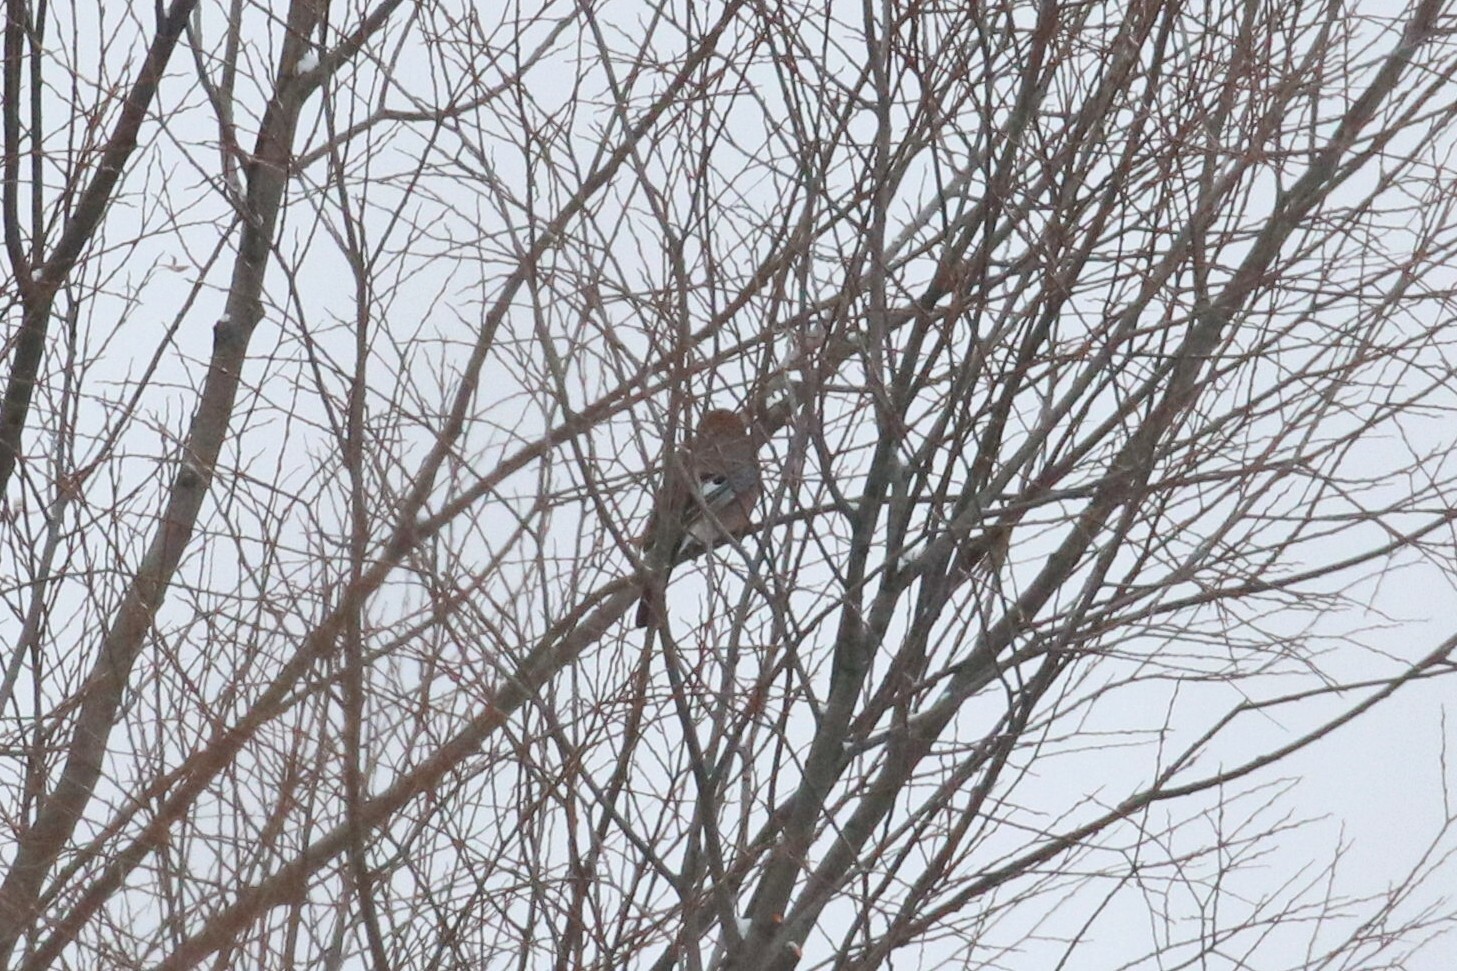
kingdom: Animalia
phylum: Chordata
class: Aves
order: Passeriformes
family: Corvidae
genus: Garrulus
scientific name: Garrulus glandarius
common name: Eurasian jay
